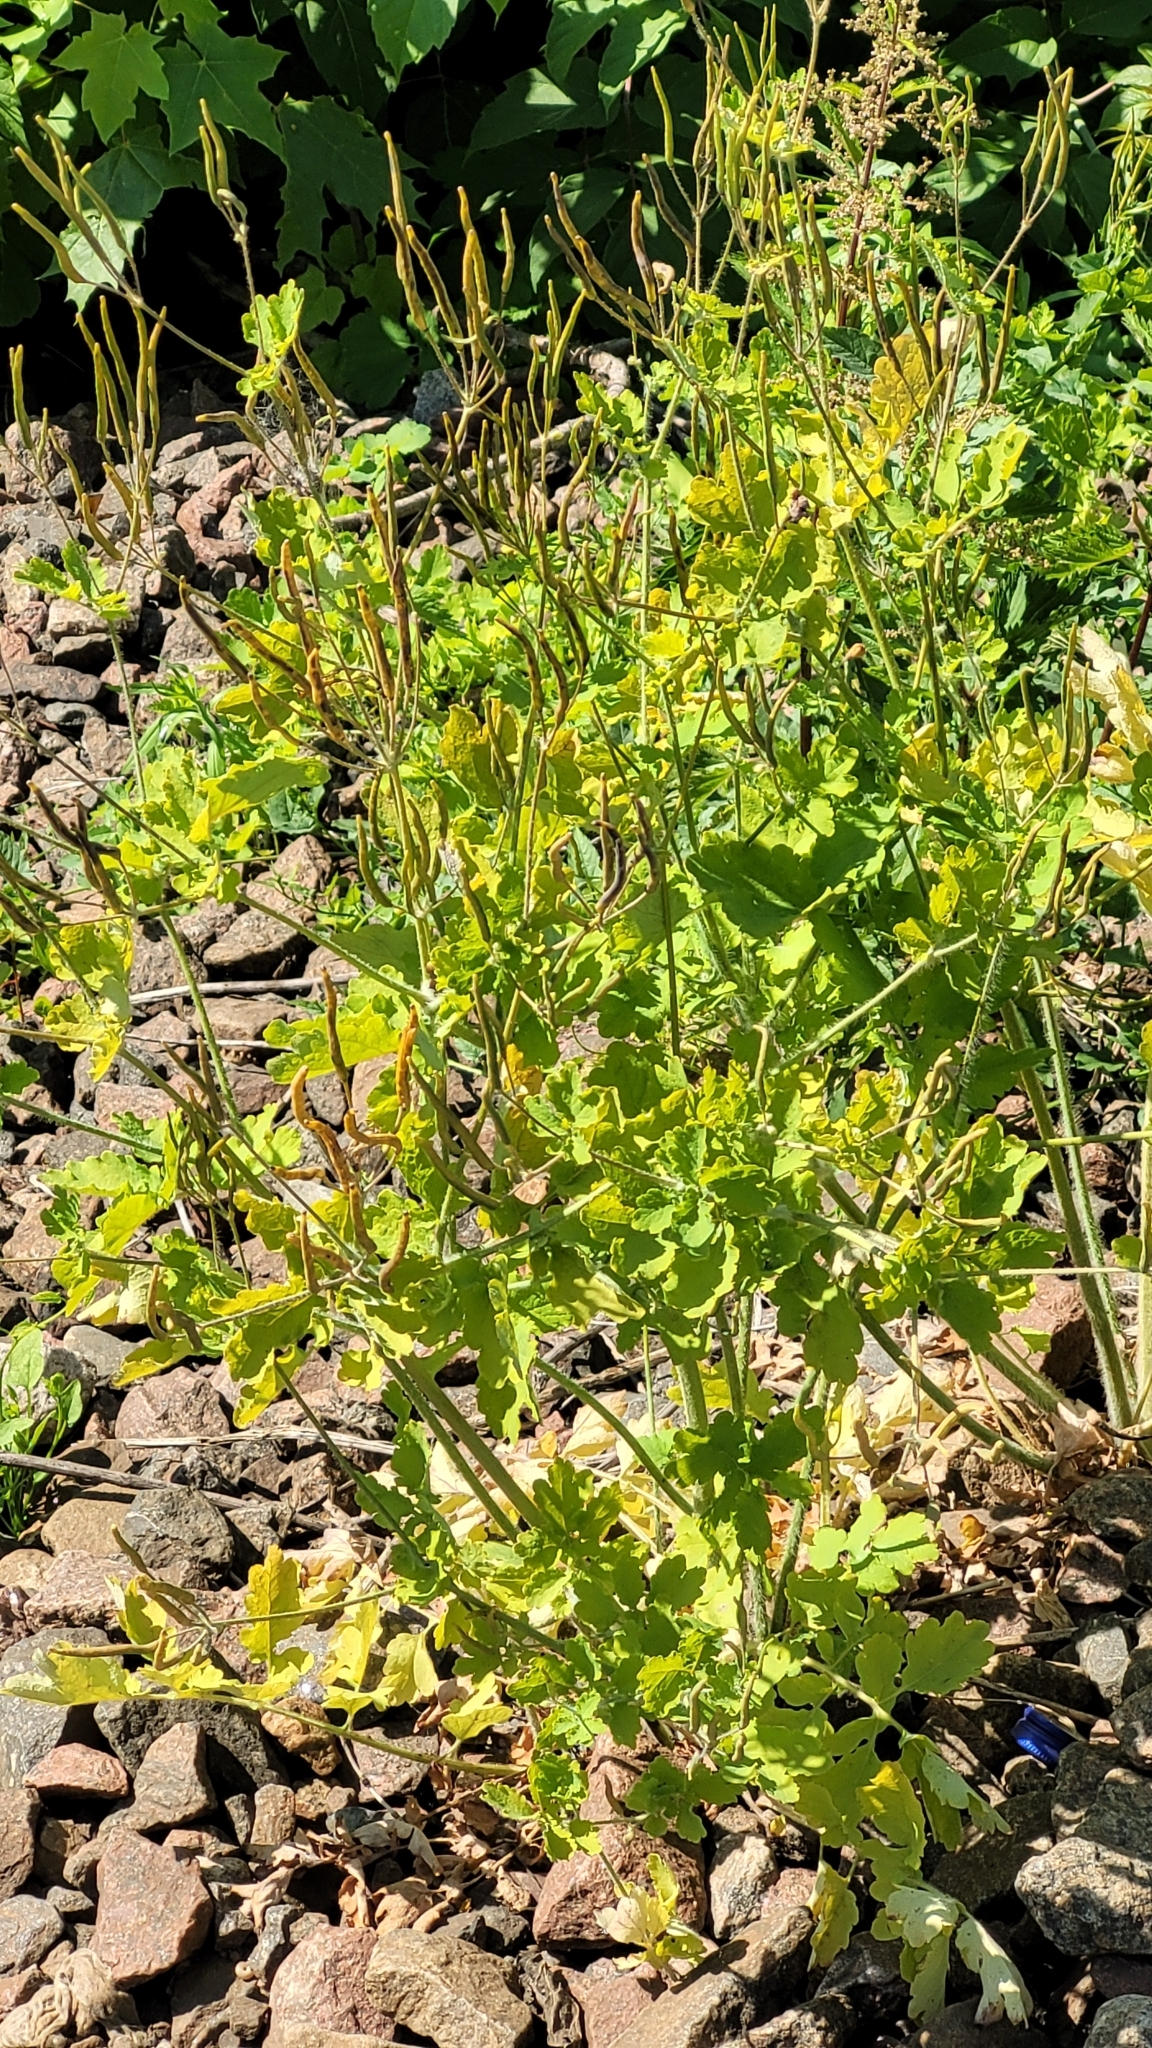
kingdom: Plantae
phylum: Tracheophyta
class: Magnoliopsida
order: Ranunculales
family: Papaveraceae
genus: Chelidonium
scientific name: Chelidonium majus
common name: Greater celandine
